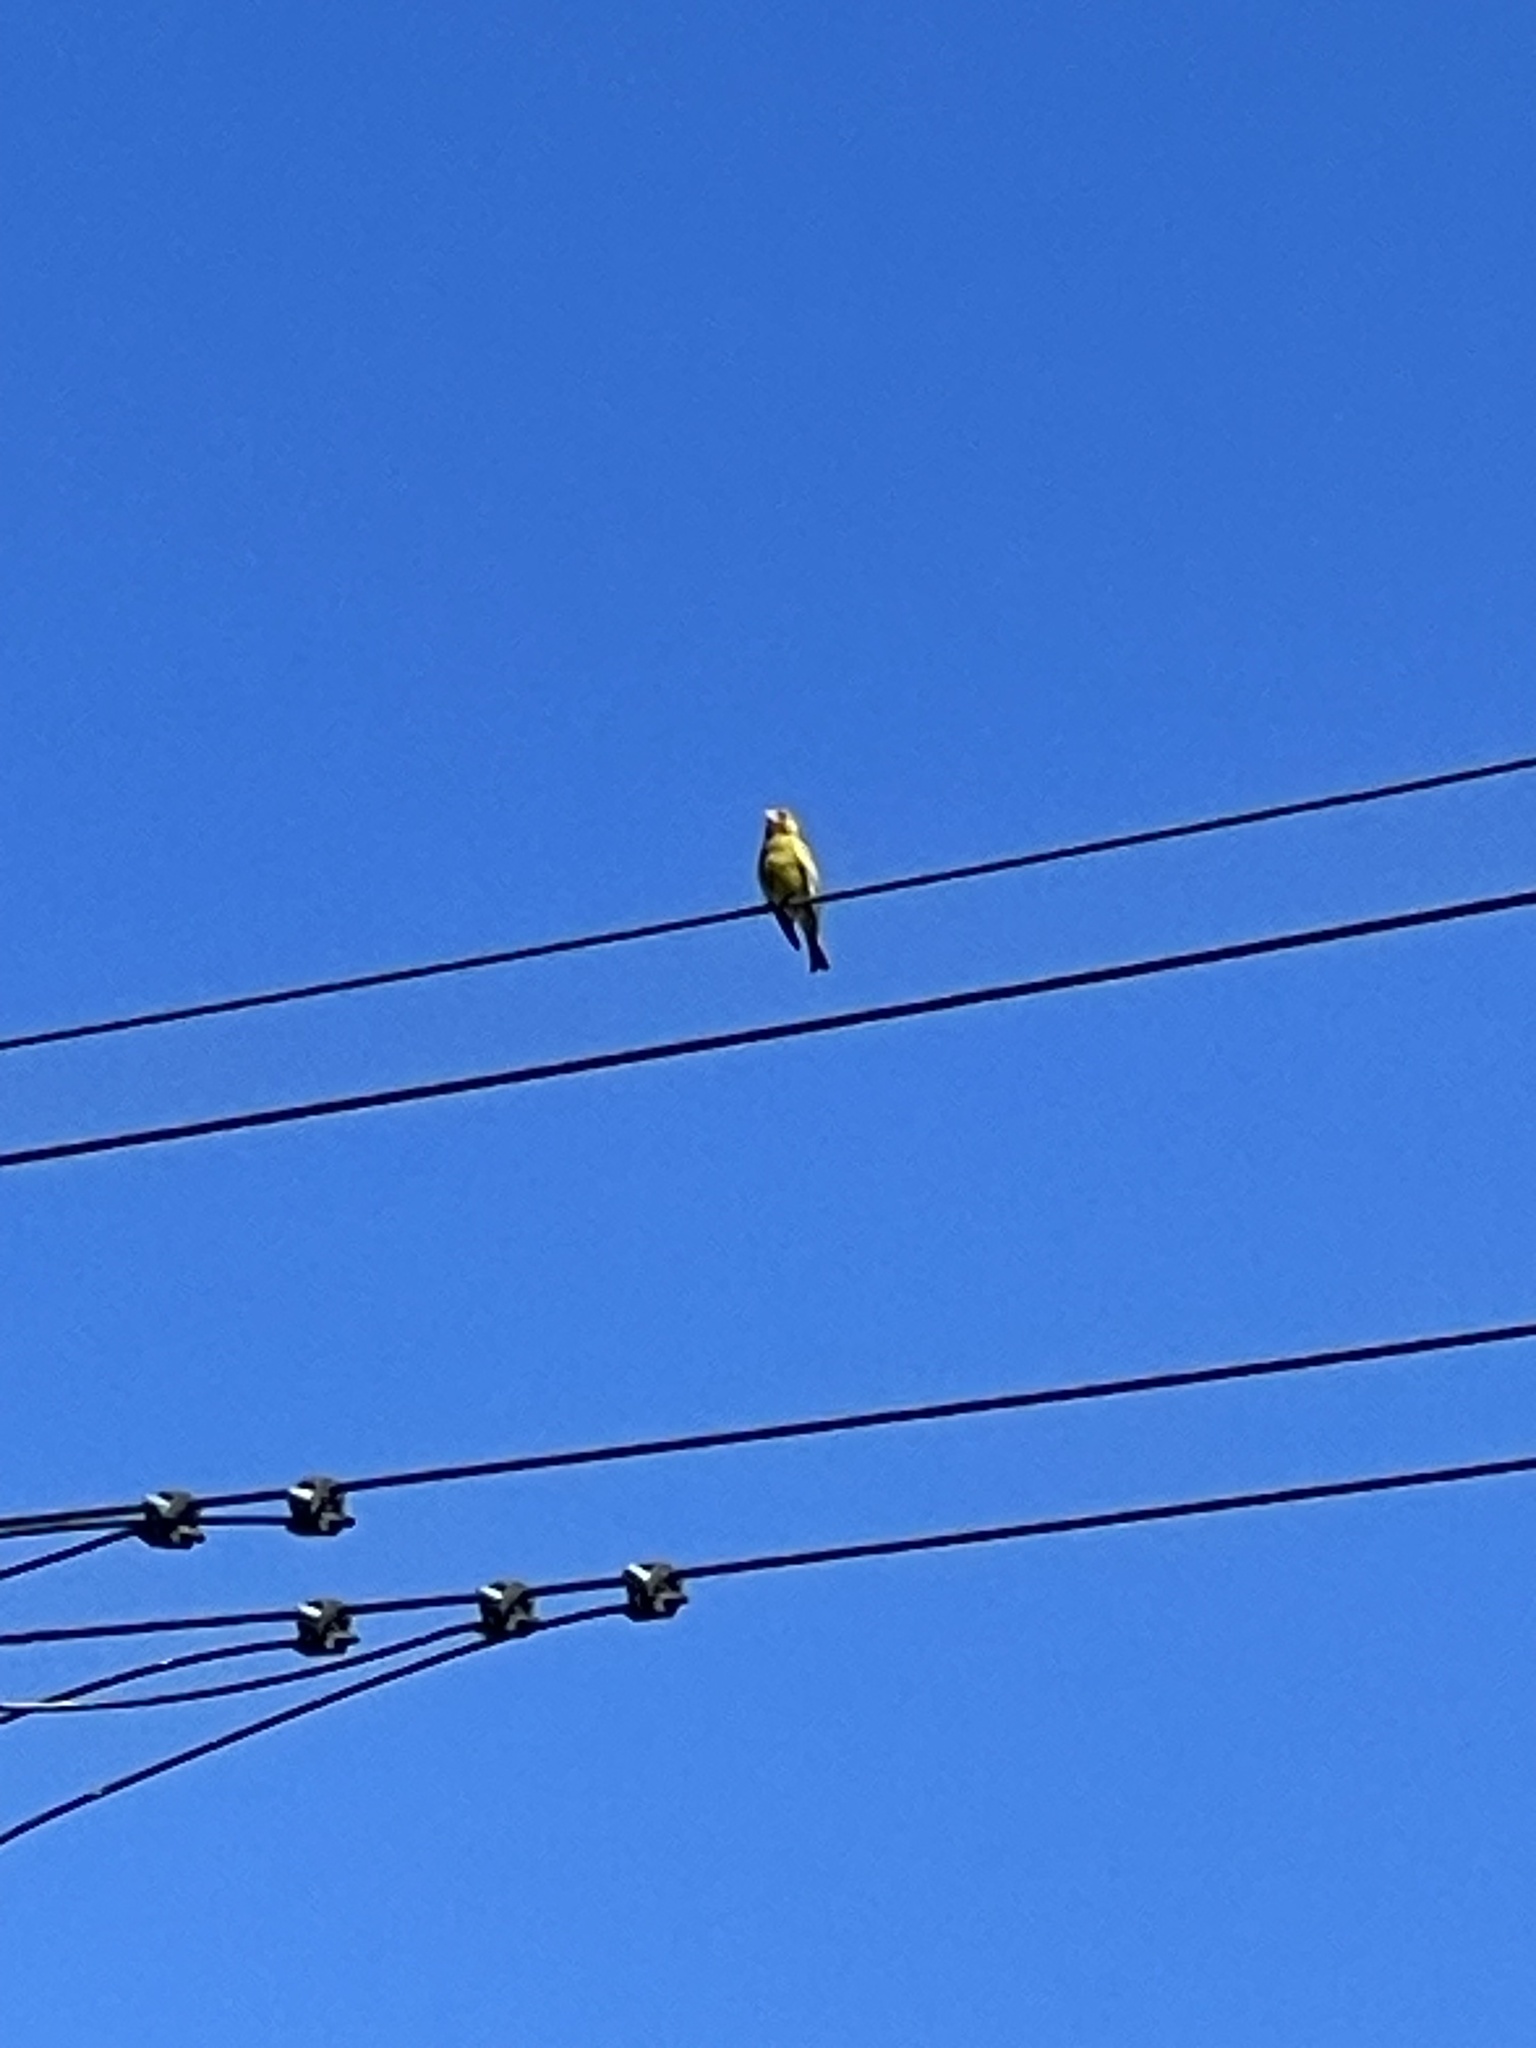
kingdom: Plantae
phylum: Tracheophyta
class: Liliopsida
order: Poales
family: Poaceae
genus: Chloris
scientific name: Chloris chloris
